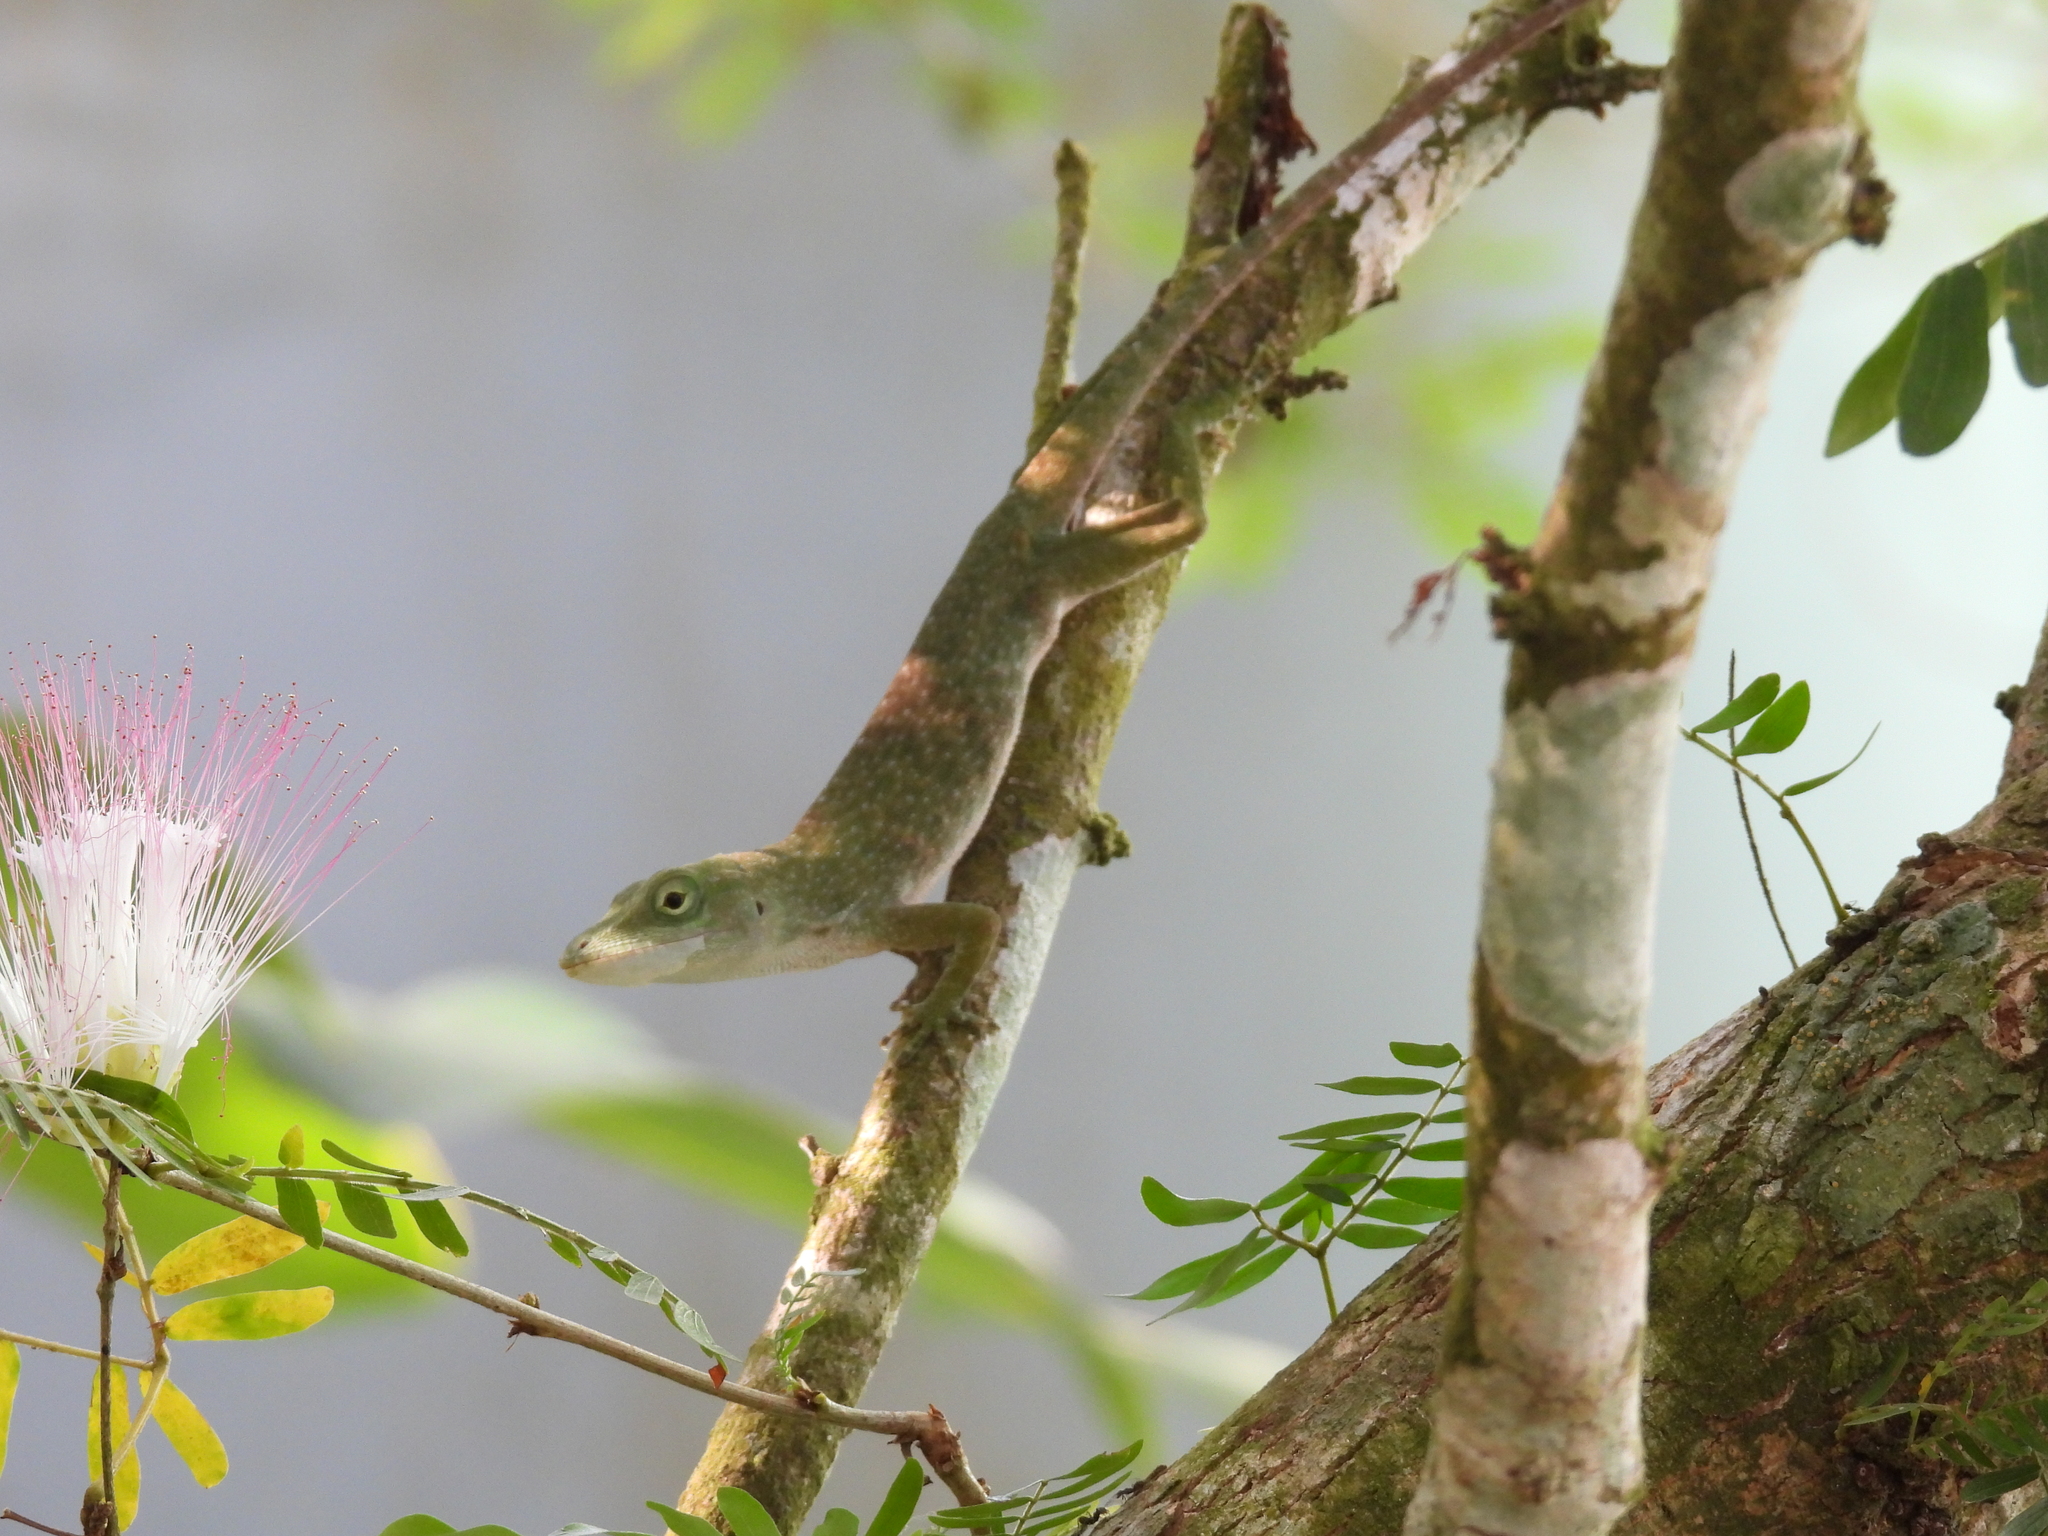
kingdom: Animalia
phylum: Chordata
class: Squamata
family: Dactyloidae
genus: Anolis
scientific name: Anolis biporcatus
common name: Giant green anole
